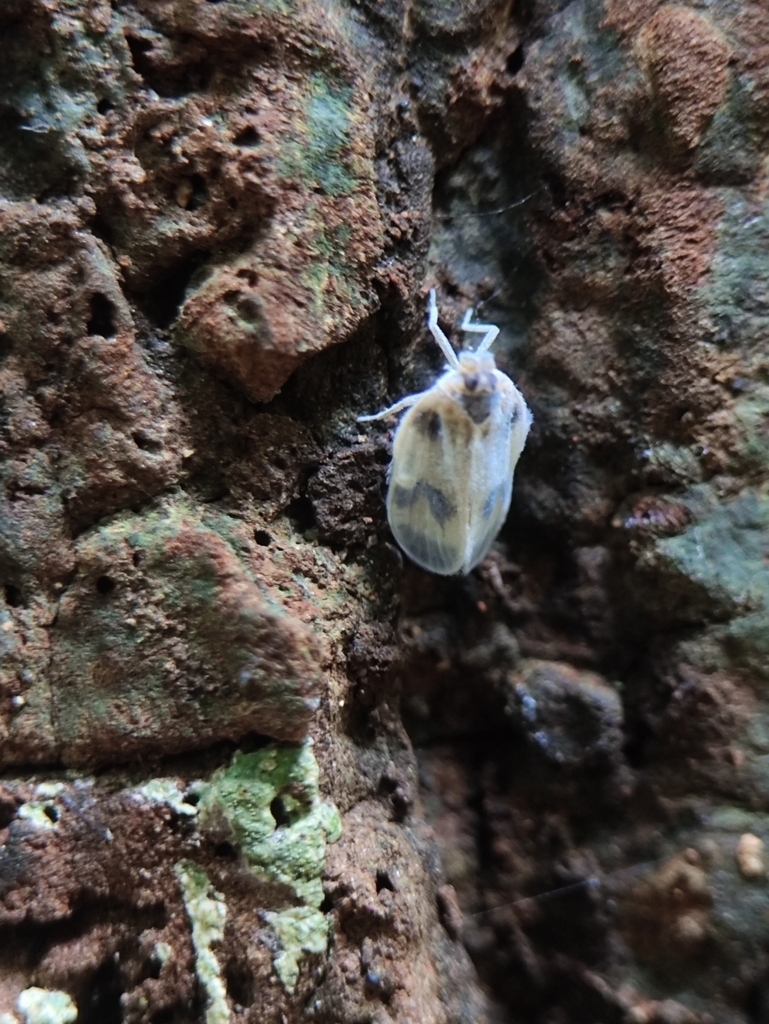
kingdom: Animalia
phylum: Arthropoda
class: Insecta
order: Hemiptera
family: Kinnaridae
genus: Kinnara
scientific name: Kinnara maculata
